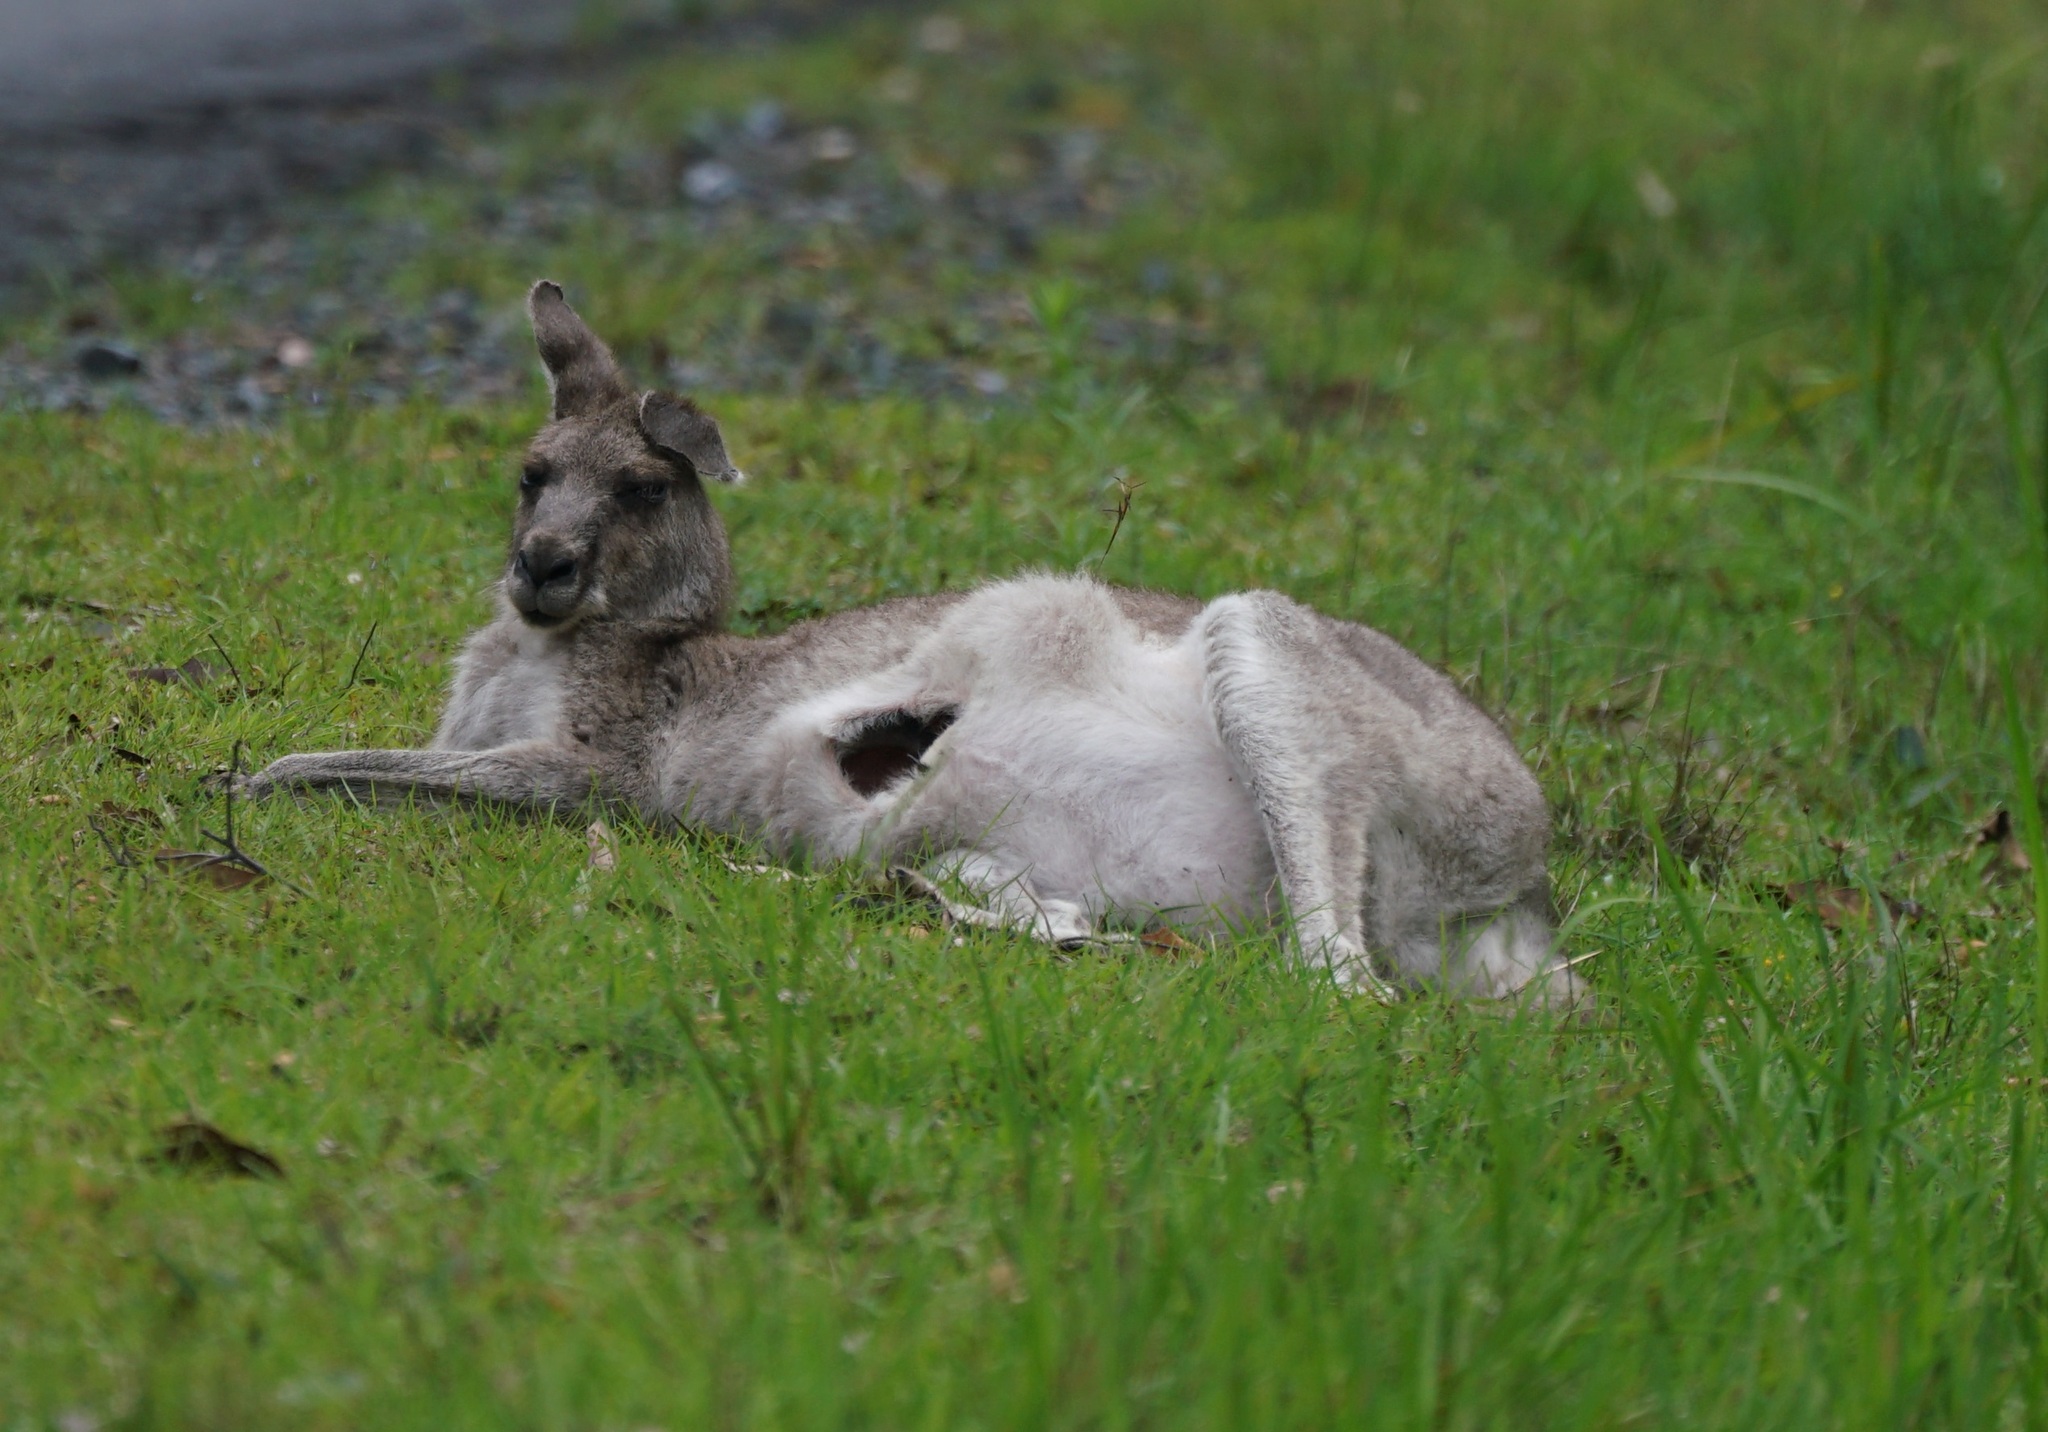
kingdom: Animalia
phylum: Chordata
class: Mammalia
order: Diprotodontia
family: Macropodidae
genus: Macropus
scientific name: Macropus giganteus
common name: Eastern grey kangaroo
